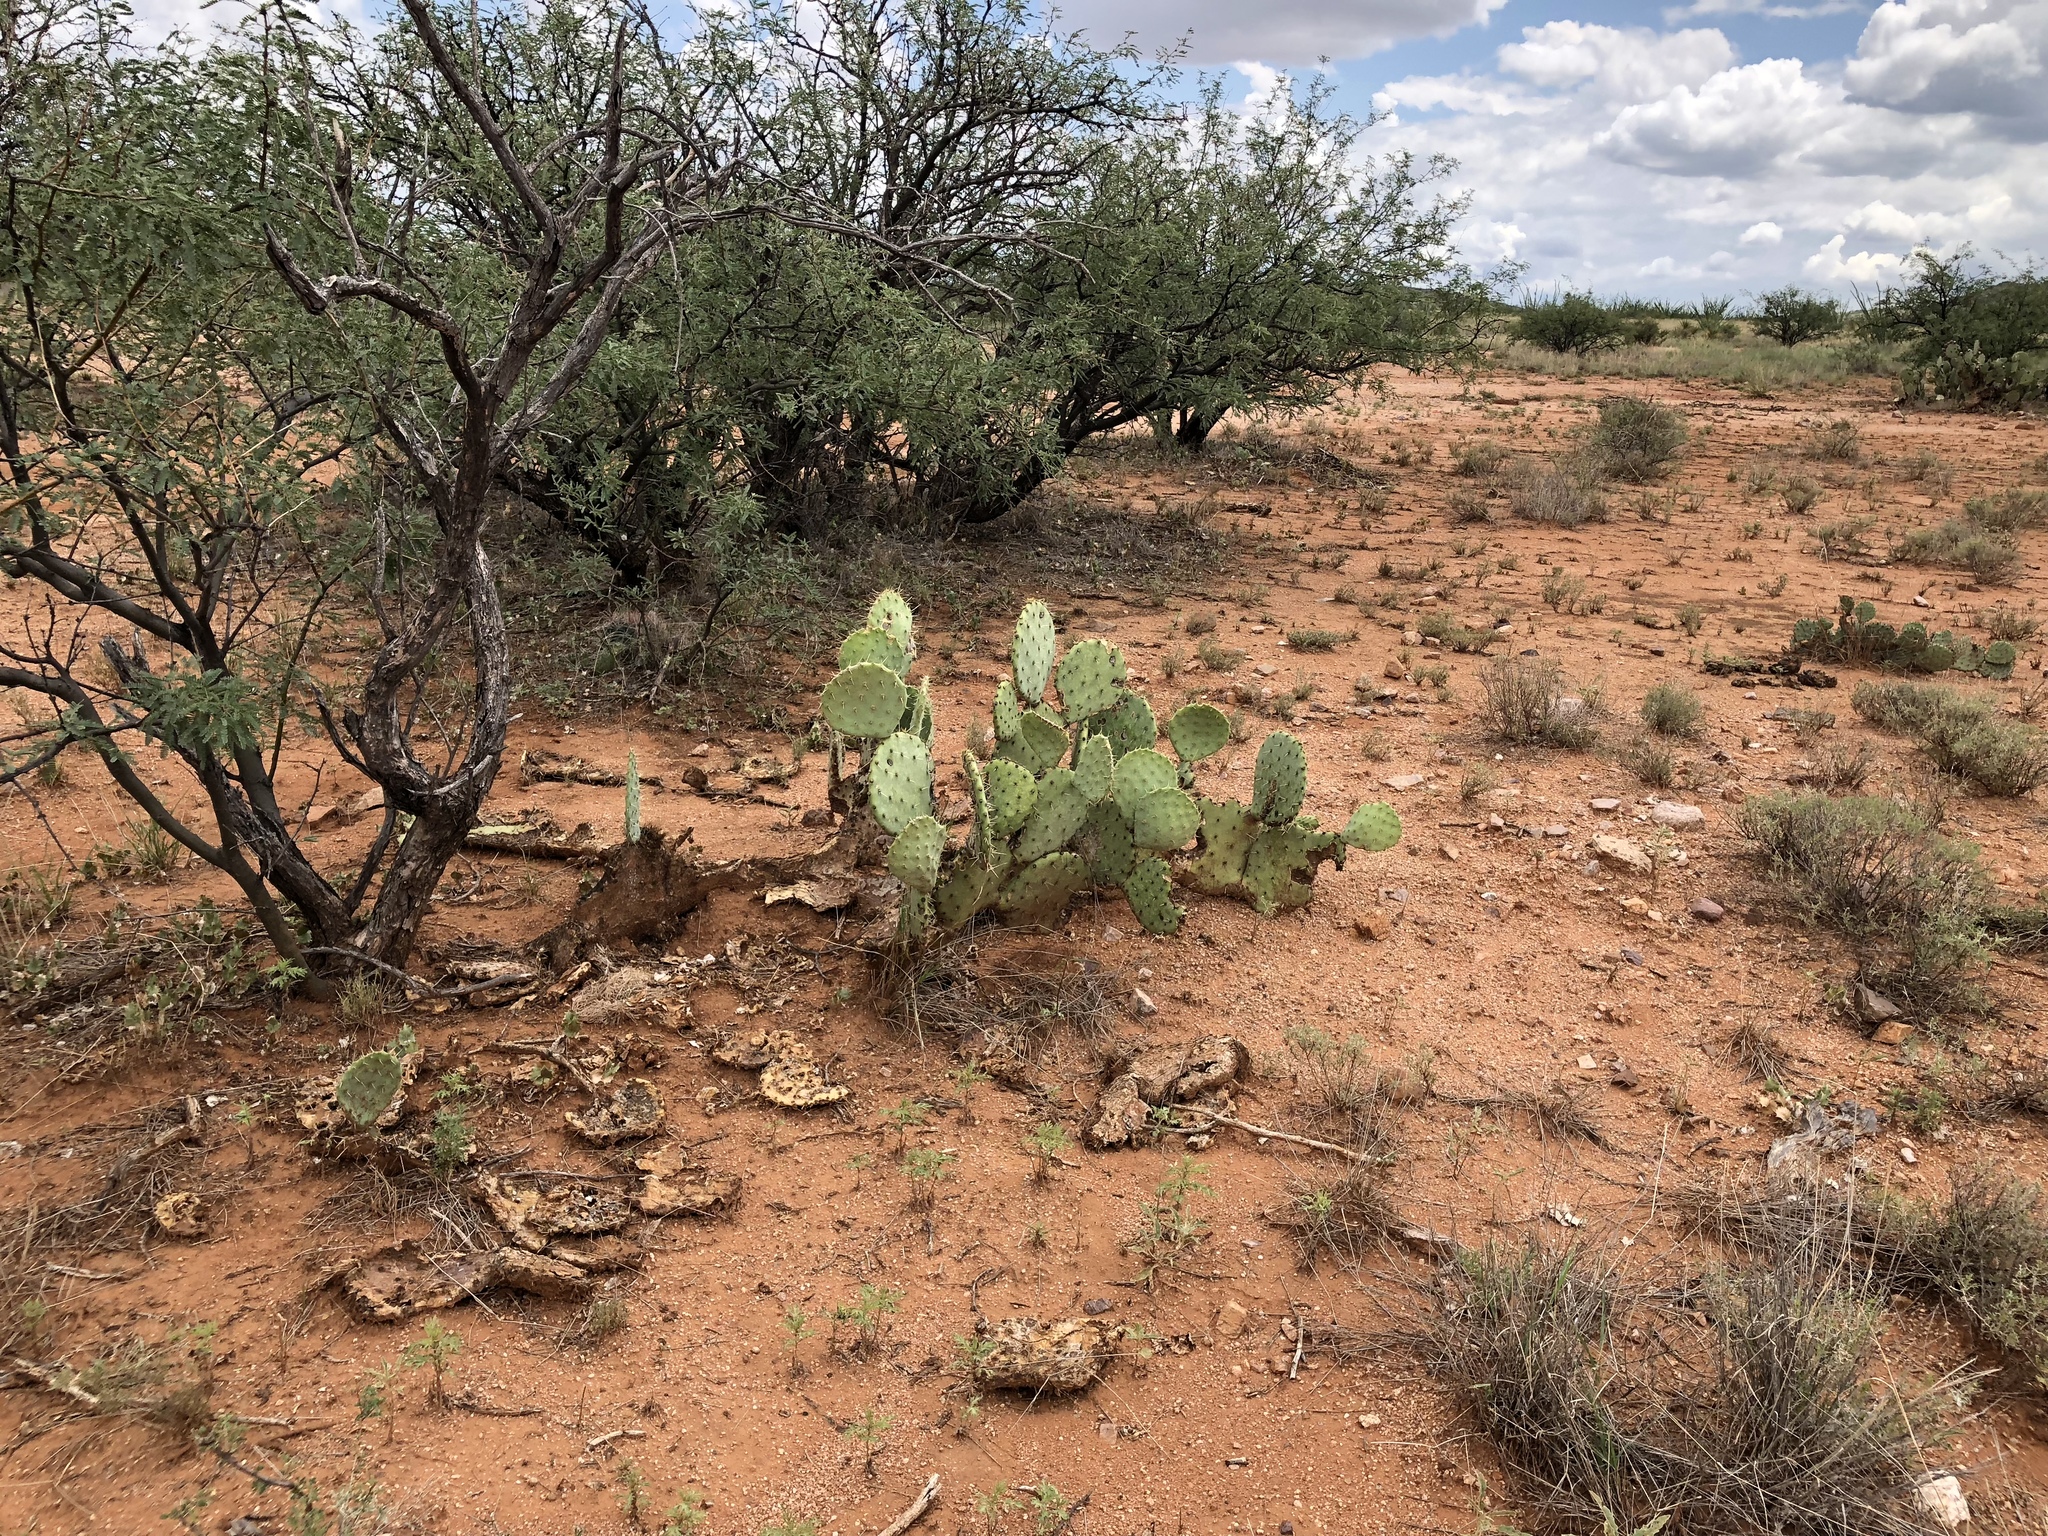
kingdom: Plantae
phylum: Tracheophyta
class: Magnoliopsida
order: Caryophyllales
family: Cactaceae
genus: Opuntia
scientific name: Opuntia engelmannii
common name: Cactus-apple
